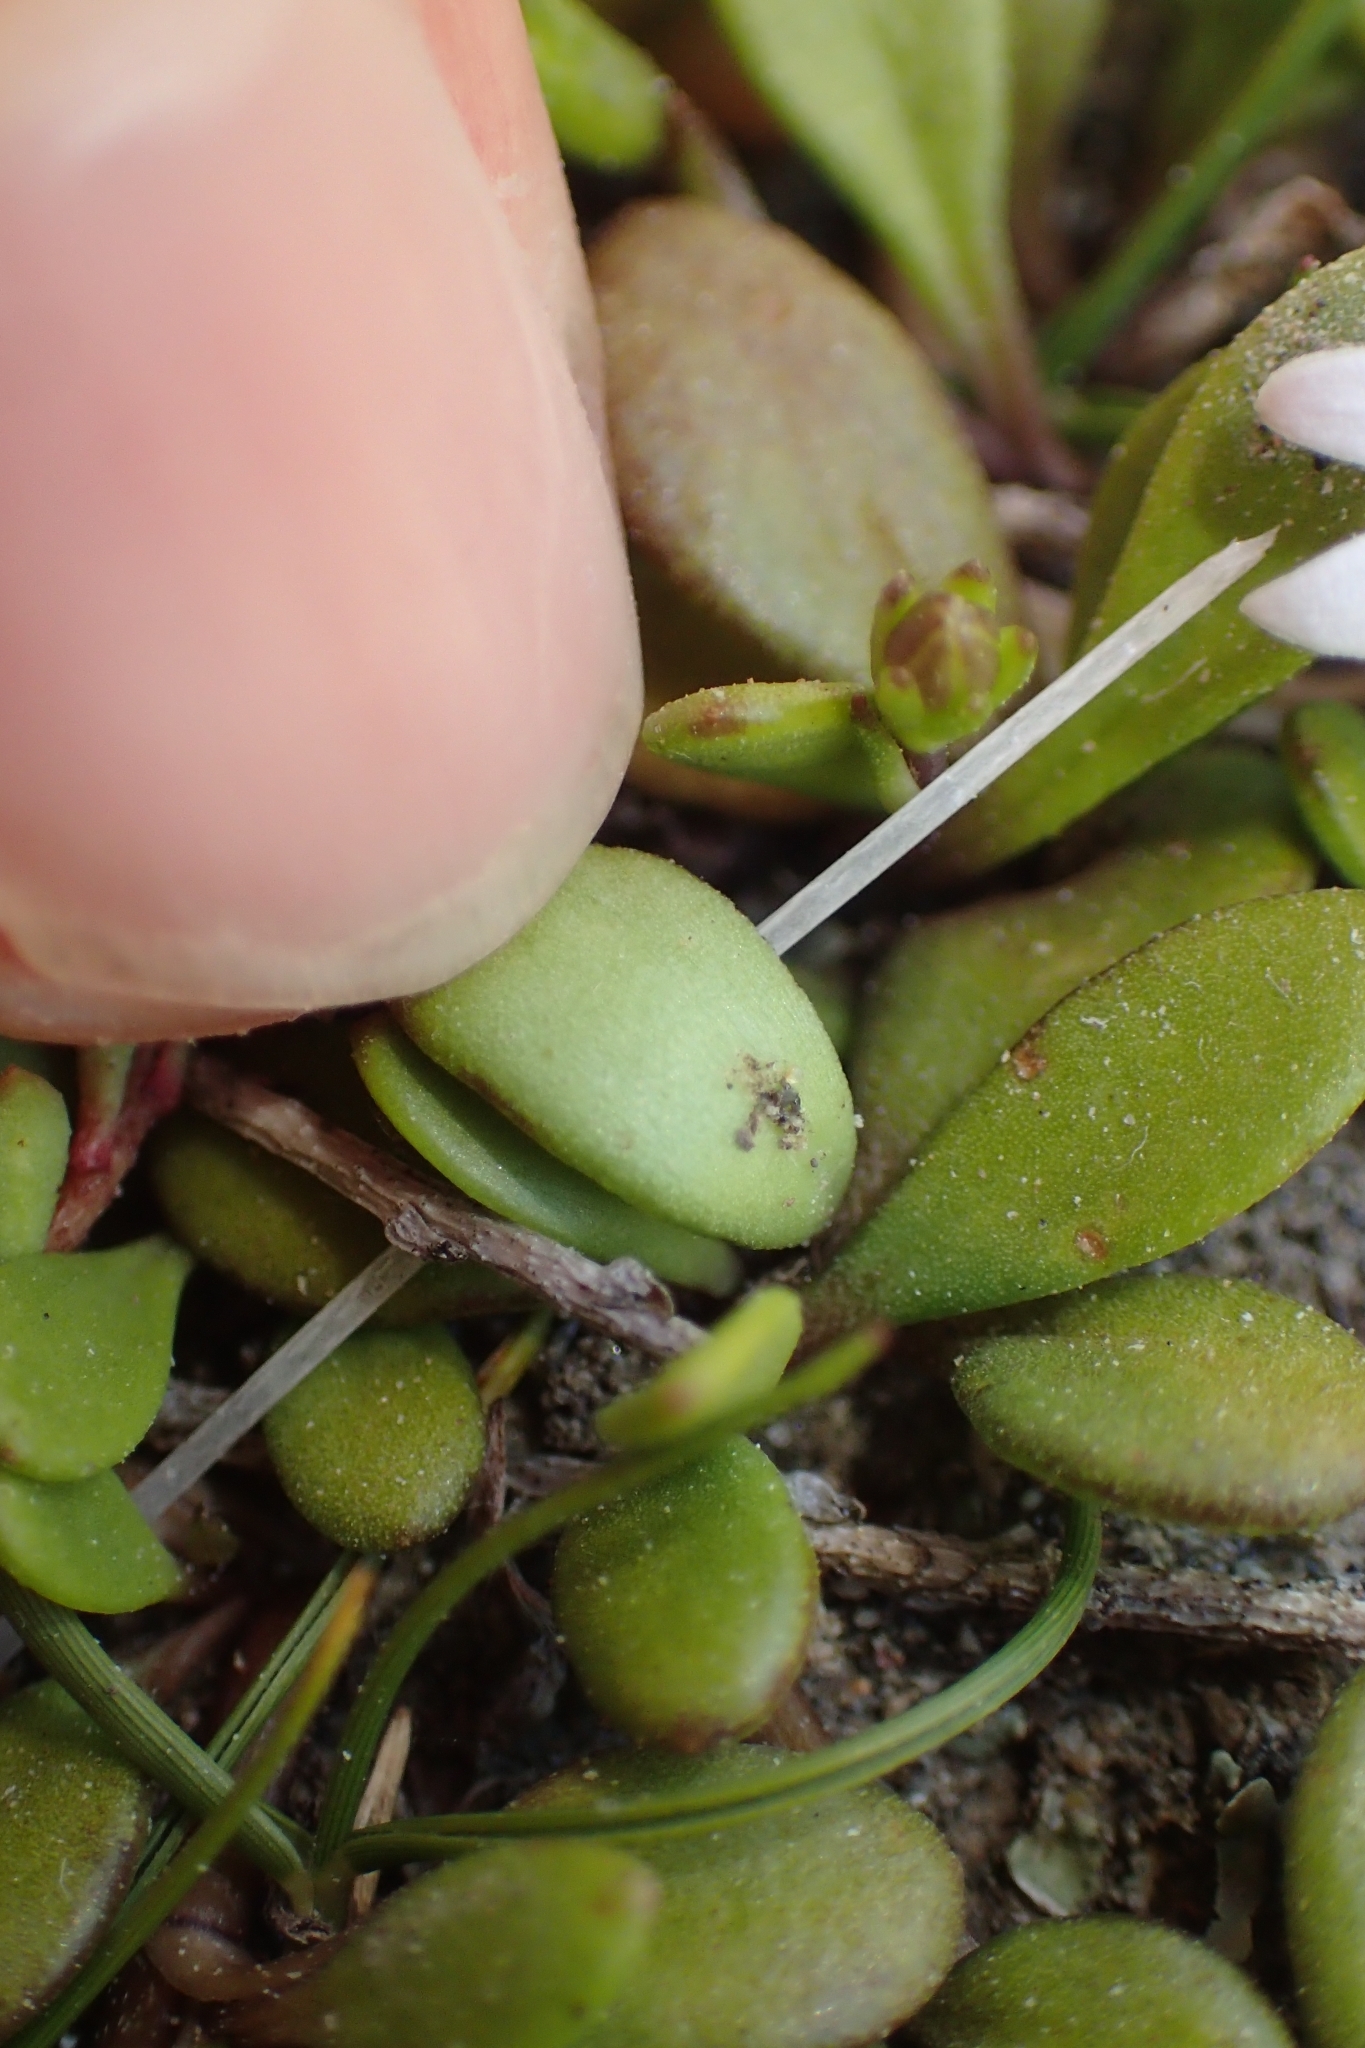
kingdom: Plantae
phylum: Tracheophyta
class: Magnoliopsida
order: Asterales
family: Goodeniaceae
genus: Goodenia
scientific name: Goodenia radicans
